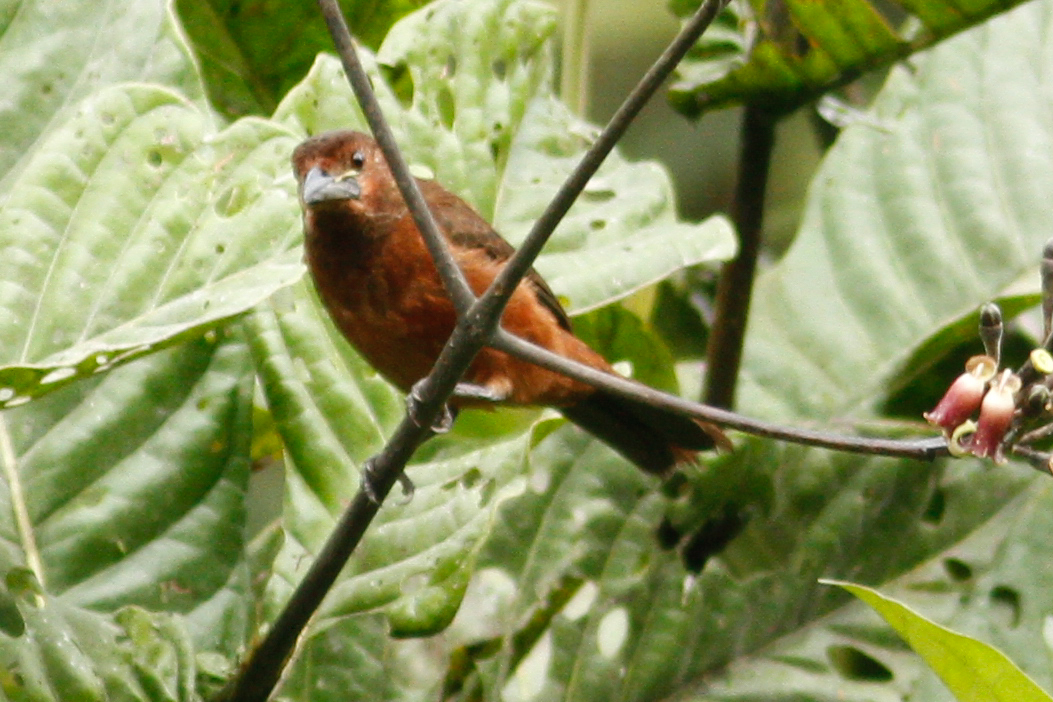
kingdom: Animalia
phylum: Chordata
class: Aves
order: Passeriformes
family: Thraupidae
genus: Ramphocelus
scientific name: Ramphocelus carbo
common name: Silver-beaked tanager
